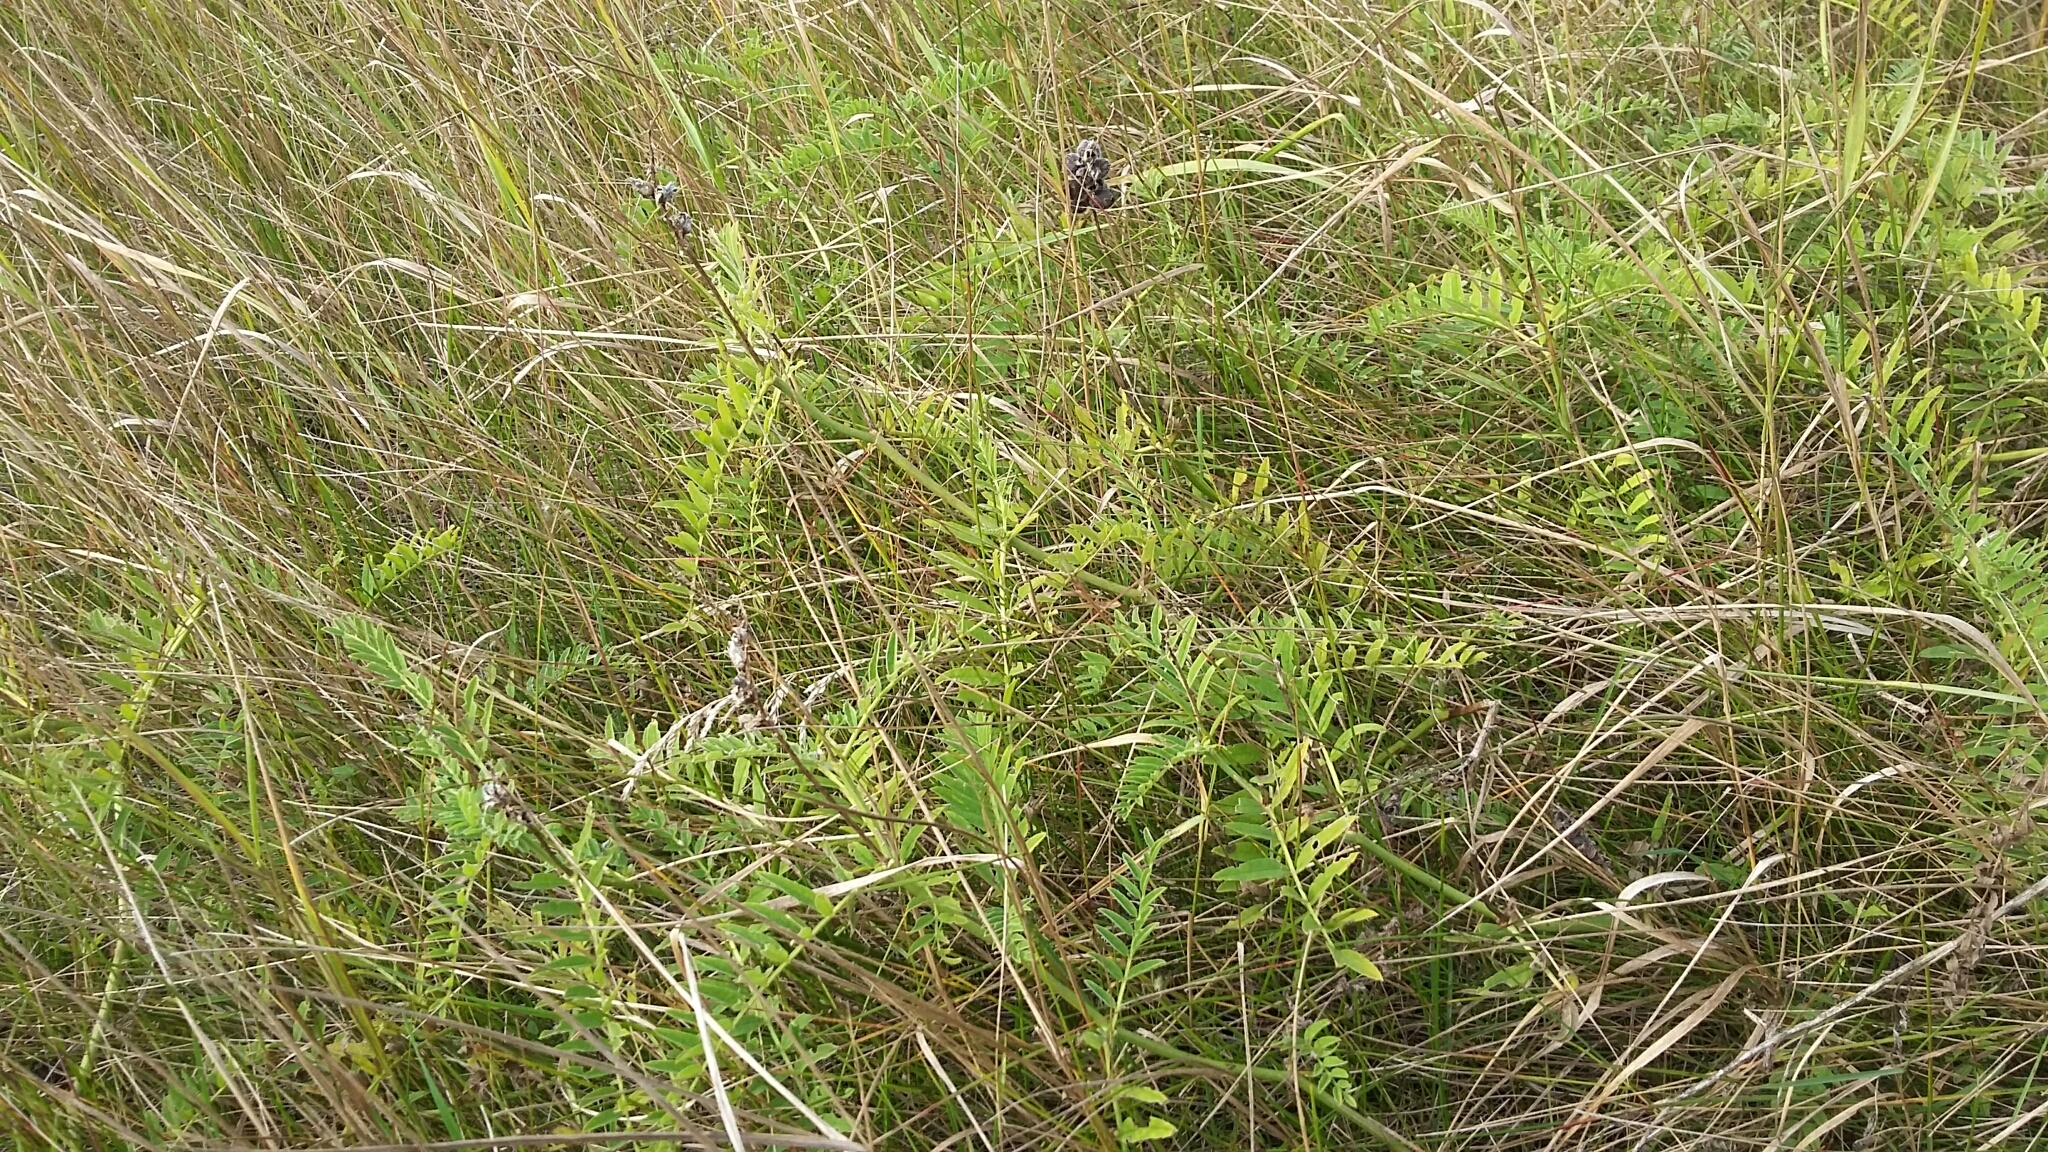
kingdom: Plantae
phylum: Tracheophyta
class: Magnoliopsida
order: Fabales
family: Fabaceae
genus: Astragalus
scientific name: Astragalus cicer
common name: Chick-pea milk-vetch
